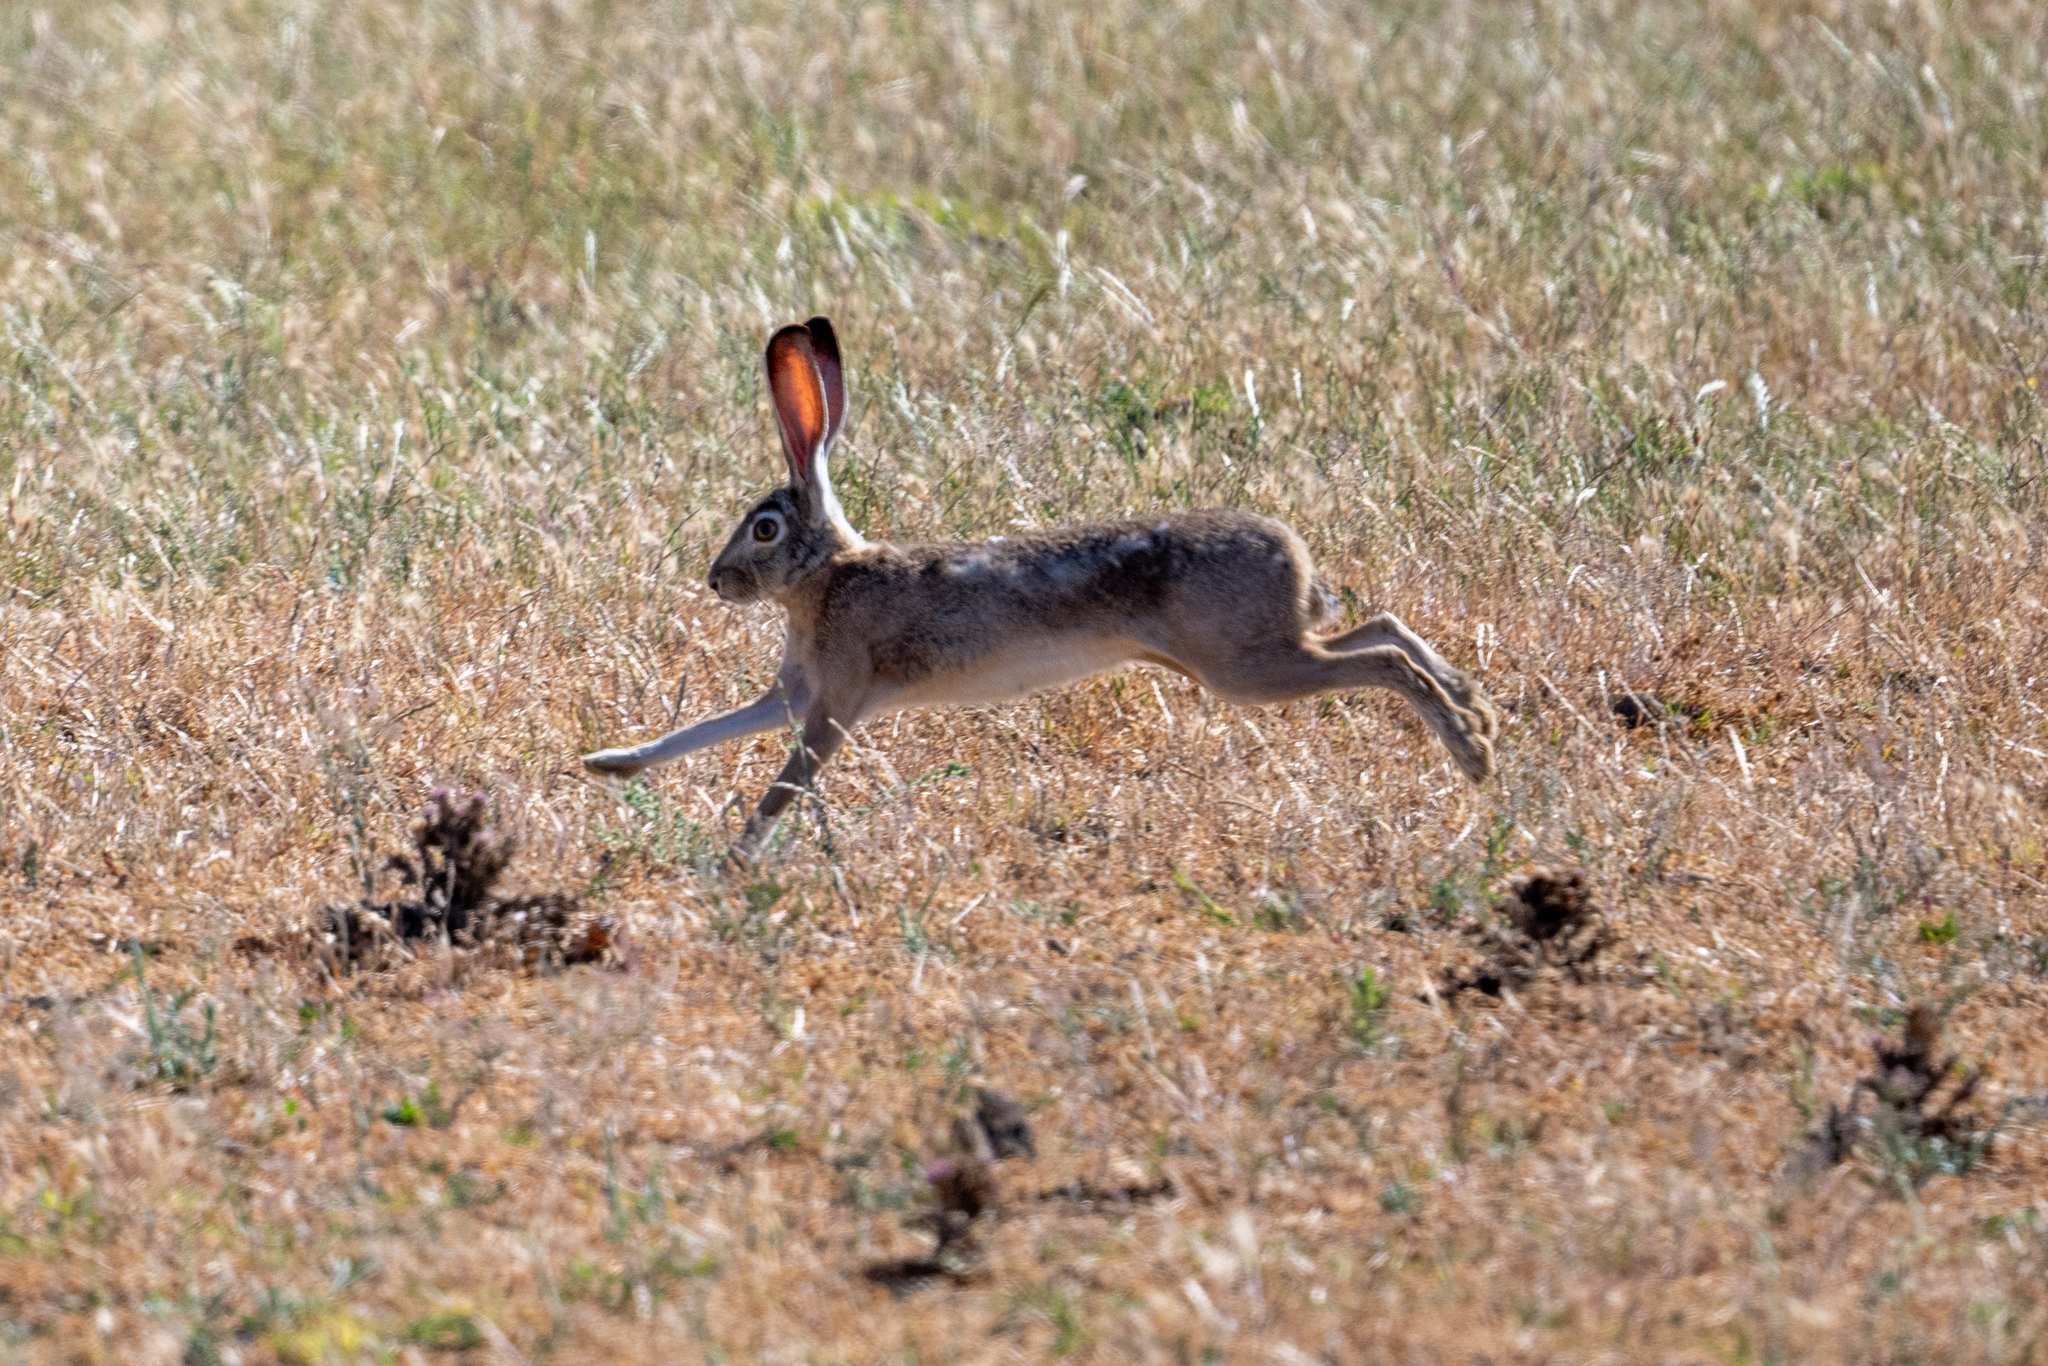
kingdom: Animalia
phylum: Chordata
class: Mammalia
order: Lagomorpha
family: Leporidae
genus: Lepus
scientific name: Lepus californicus
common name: Black-tailed jackrabbit
